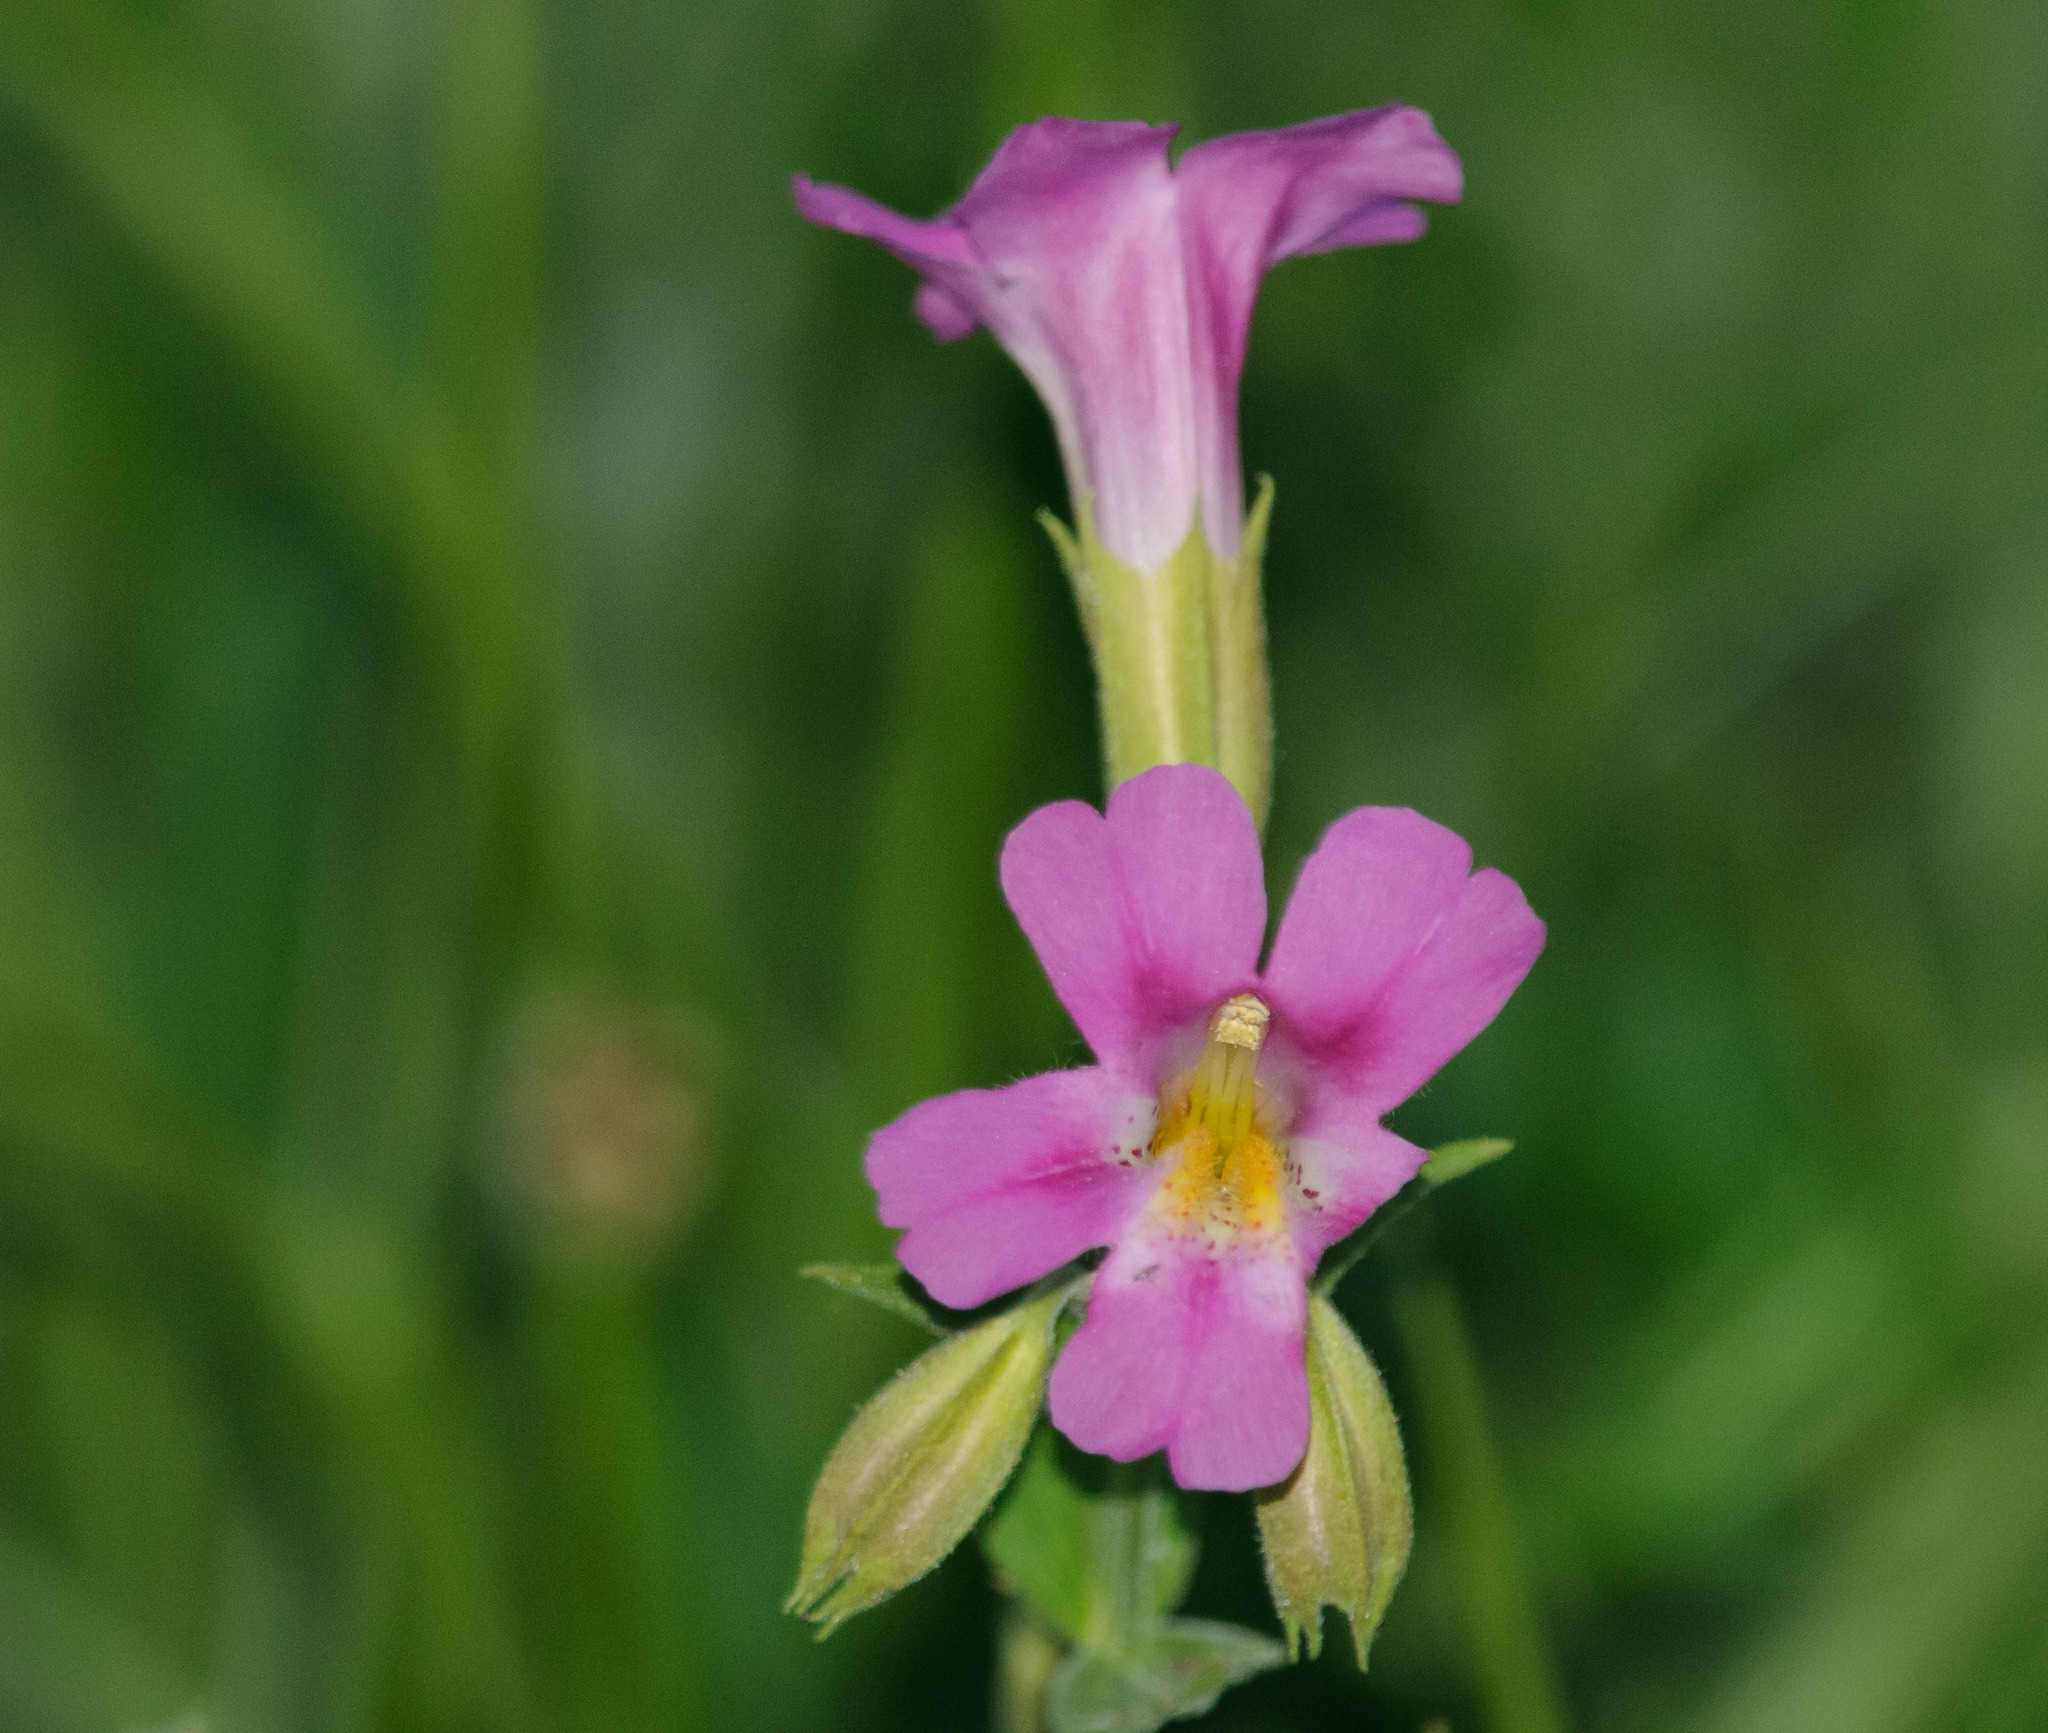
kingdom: Plantae
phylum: Tracheophyta
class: Magnoliopsida
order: Lamiales
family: Phrymaceae
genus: Erythranthe
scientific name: Erythranthe lewisii
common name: Lewis's monkey-flower
